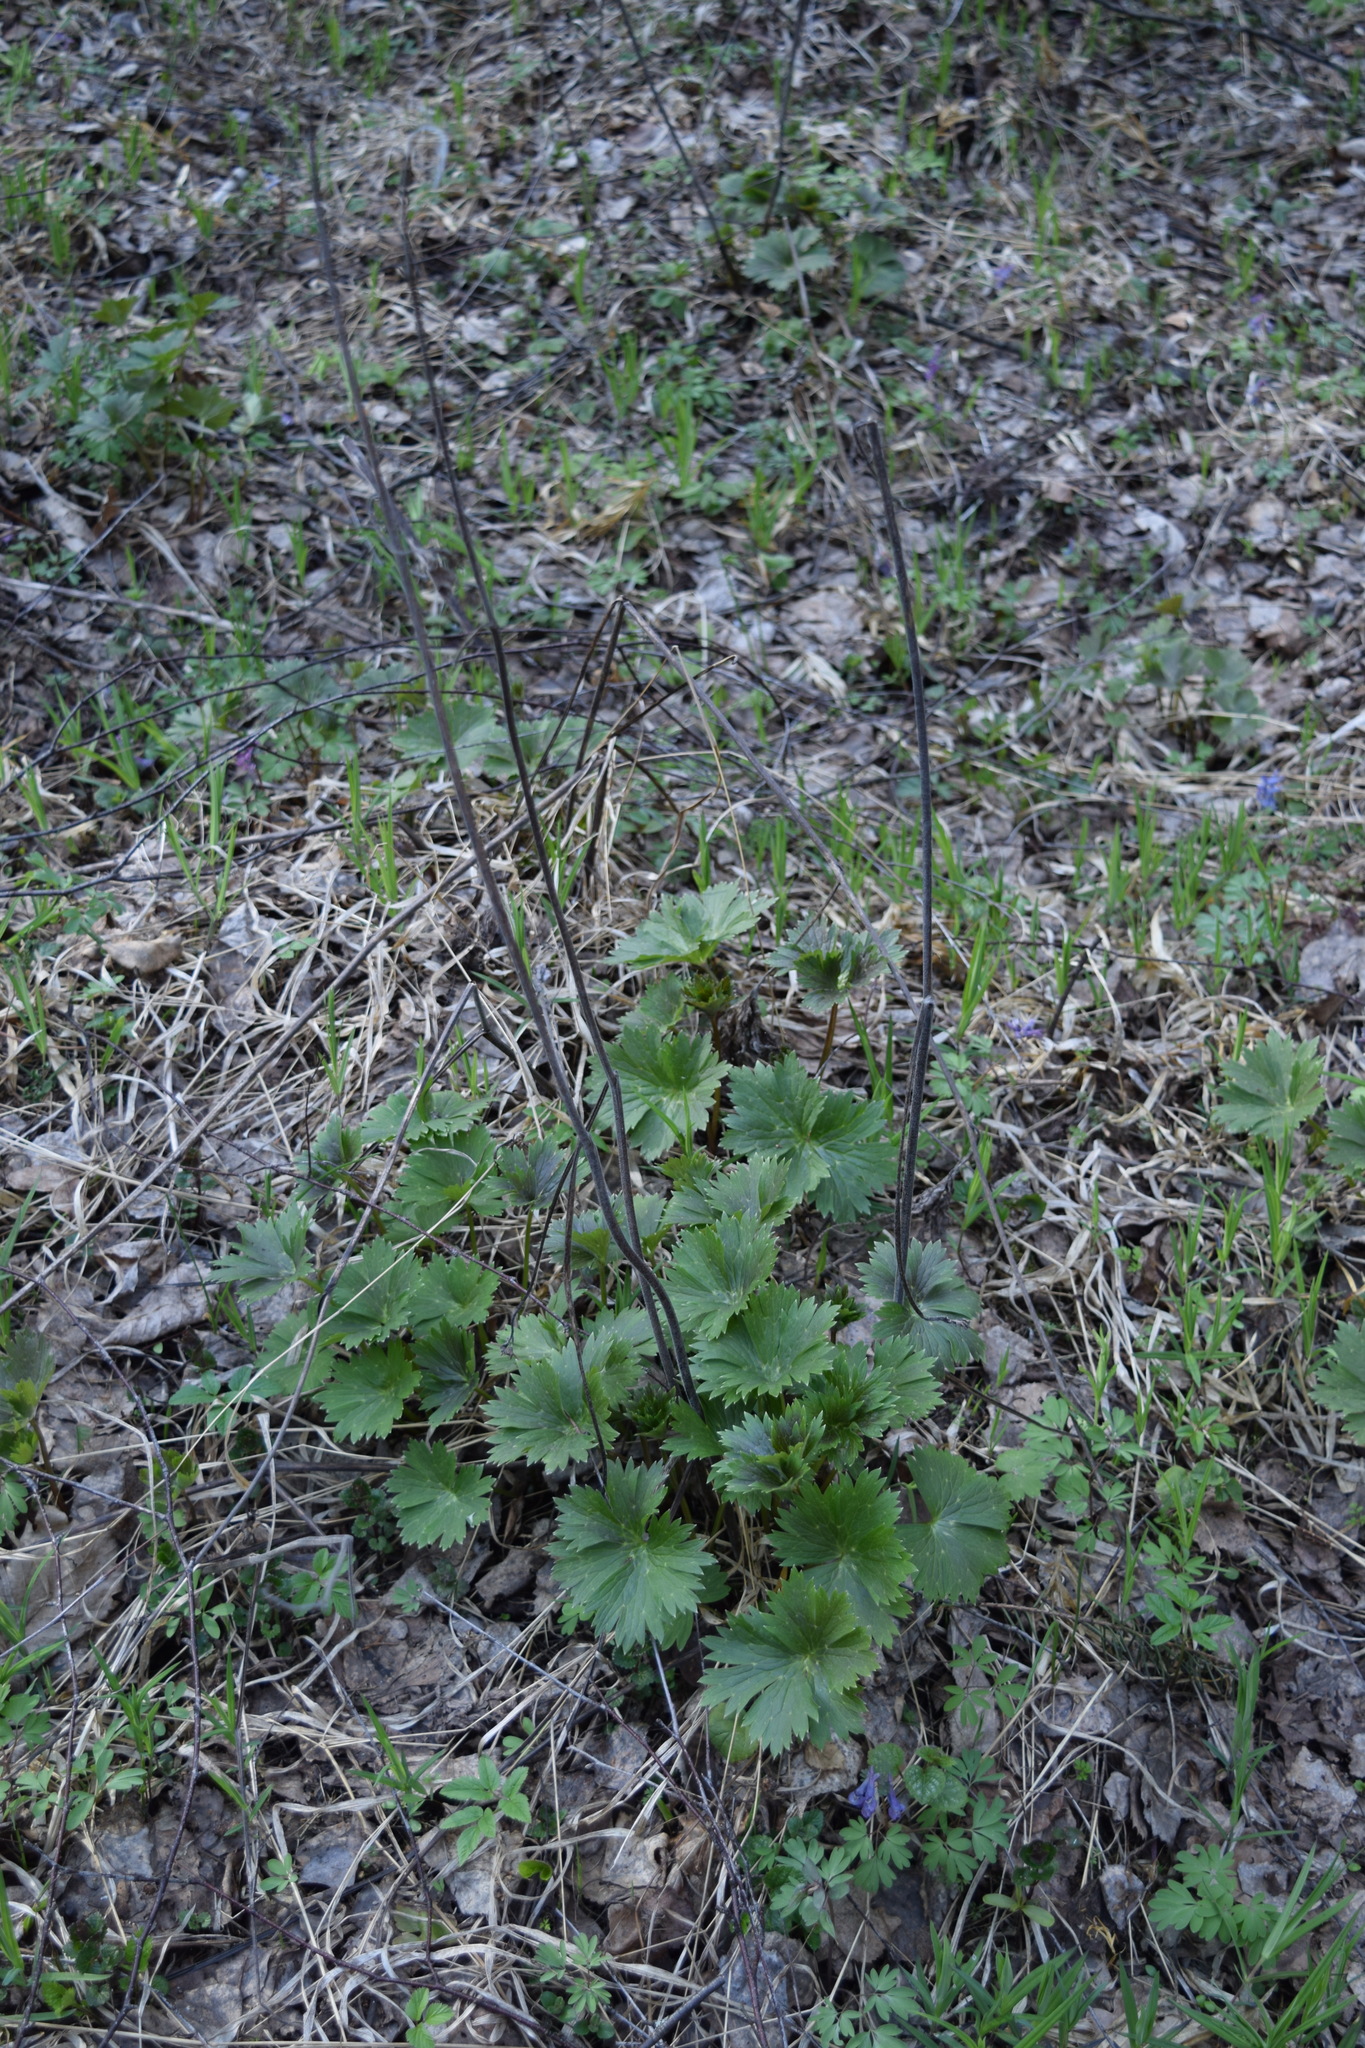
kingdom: Plantae
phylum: Tracheophyta
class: Magnoliopsida
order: Ranunculales
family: Ranunculaceae
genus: Trollius
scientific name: Trollius europaeus
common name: European globeflower
